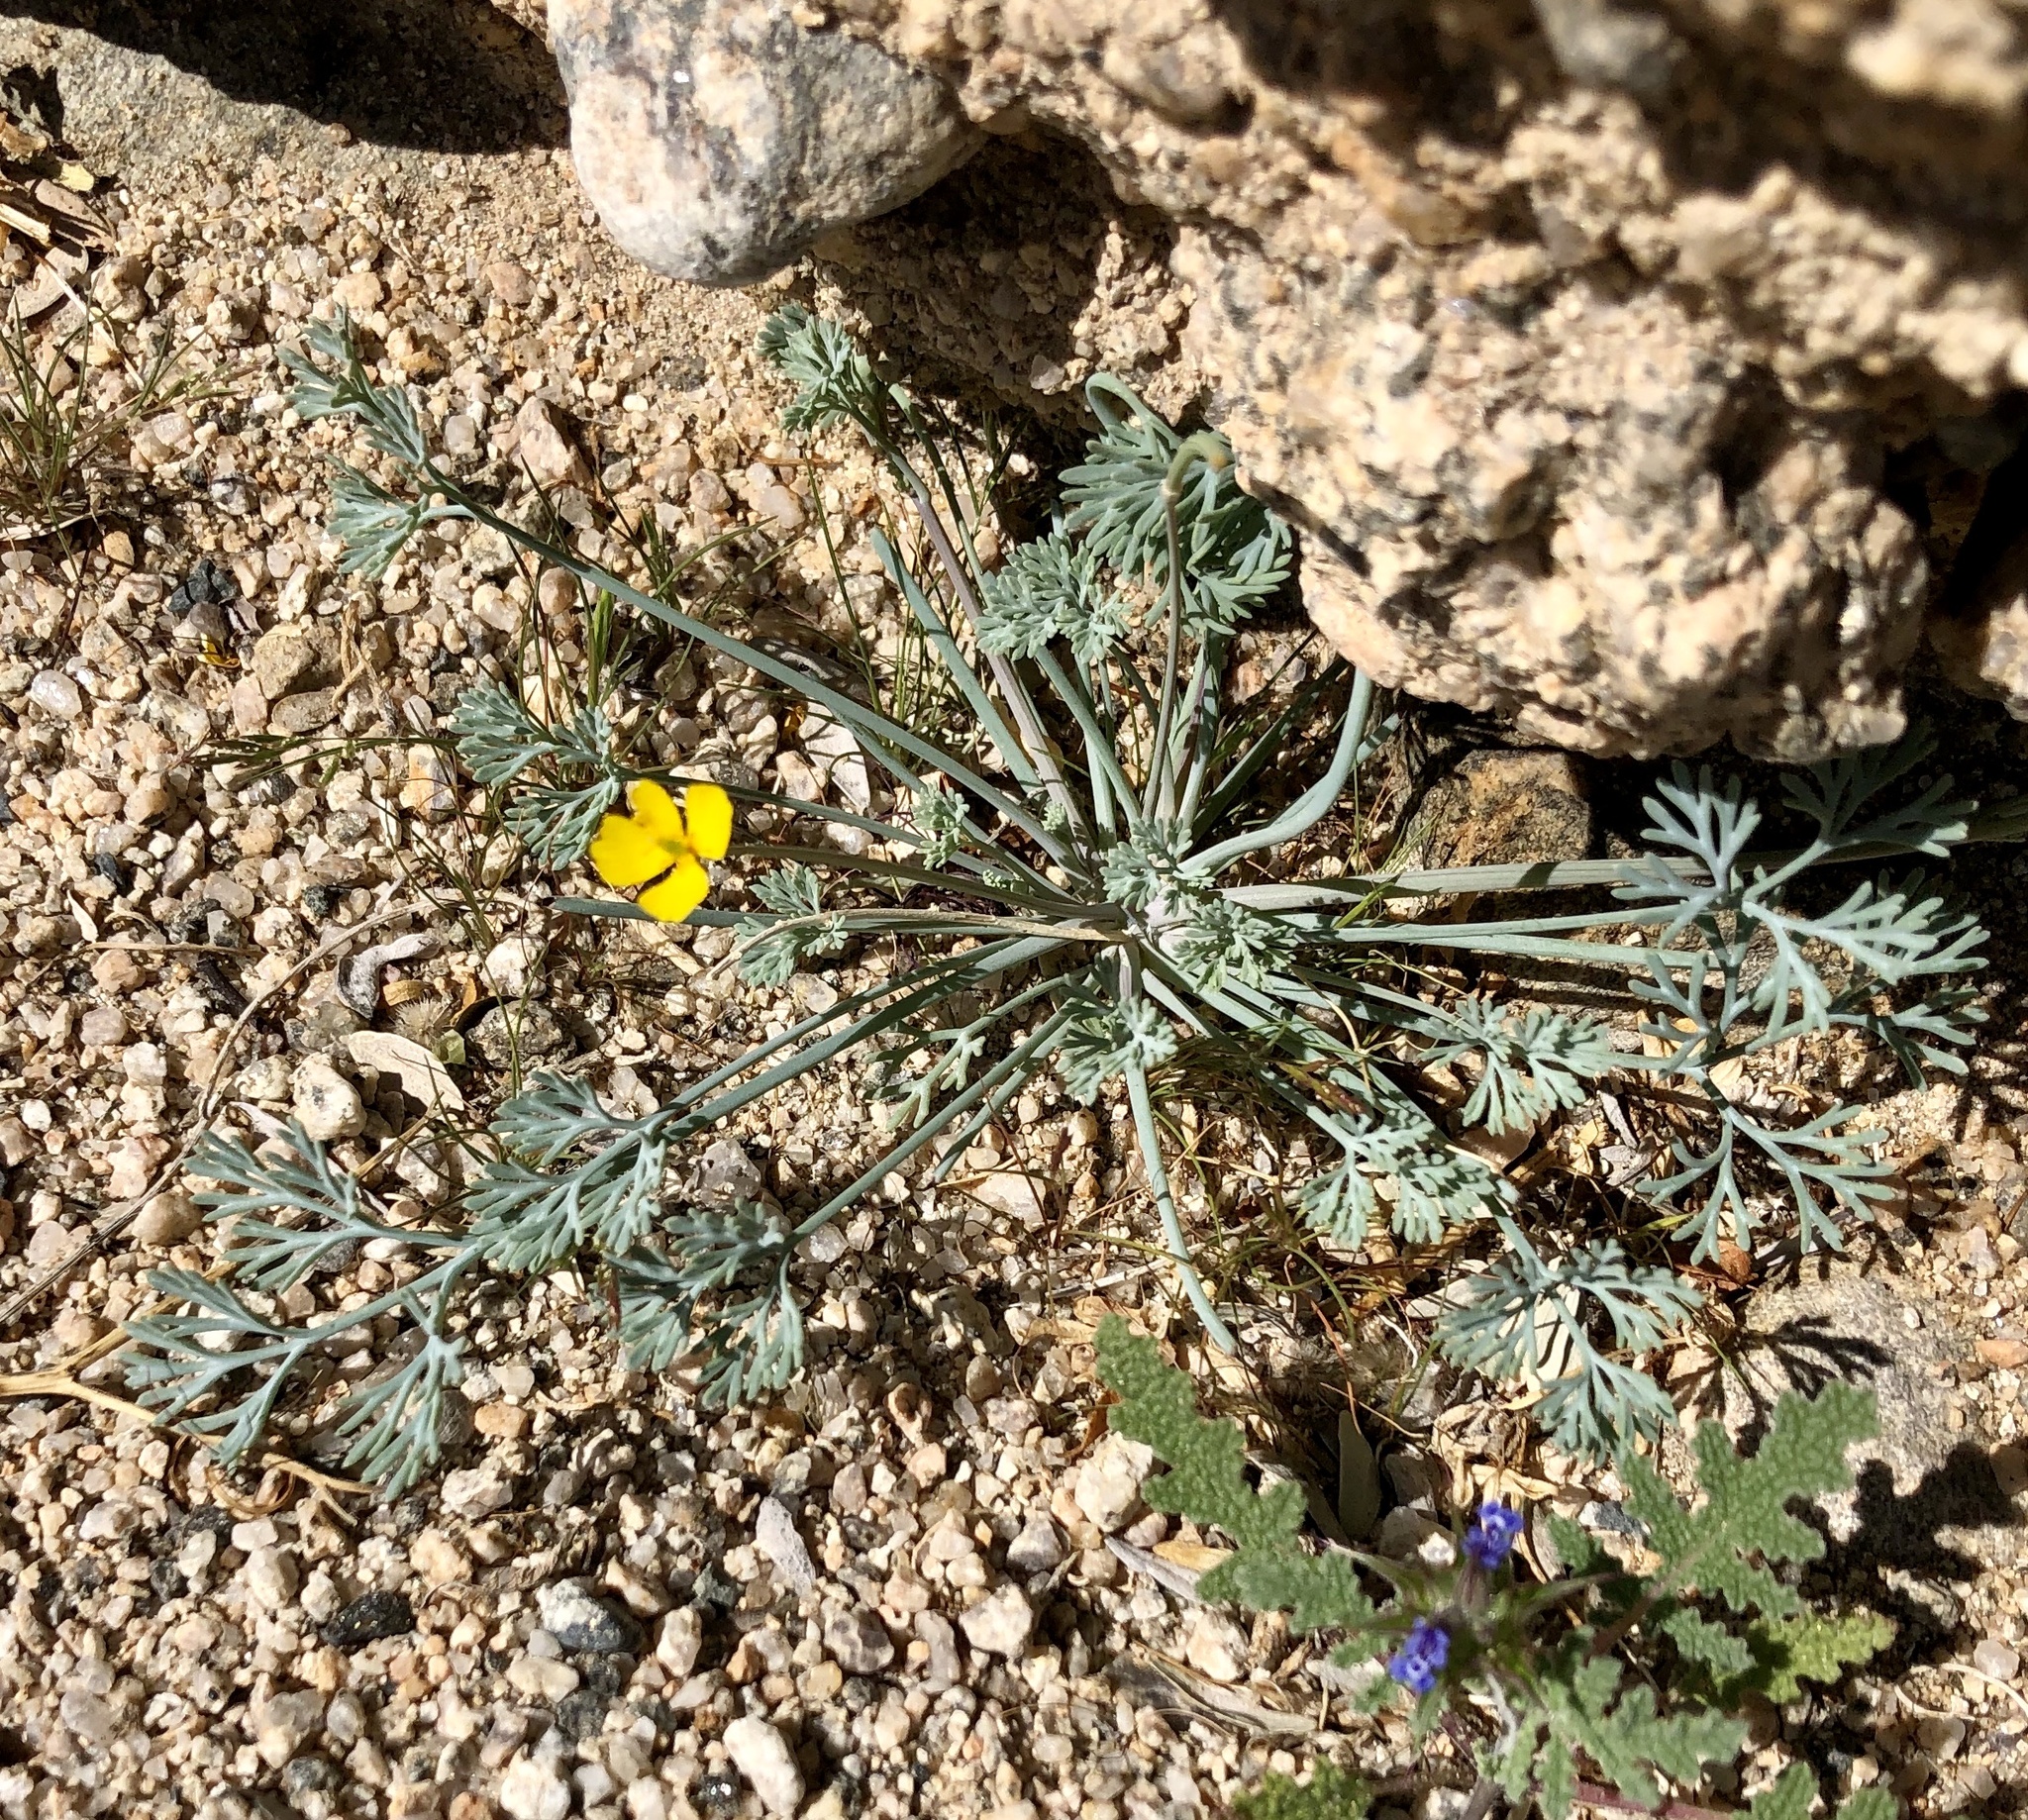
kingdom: Plantae
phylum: Tracheophyta
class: Magnoliopsida
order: Ranunculales
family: Papaveraceae
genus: Eschscholzia
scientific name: Eschscholzia minutiflora
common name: Small-flower california-poppy
